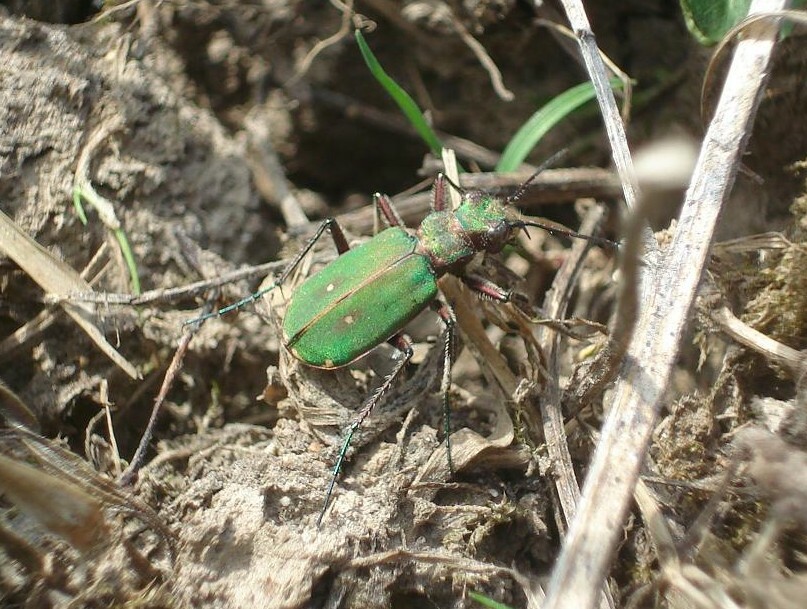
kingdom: Animalia
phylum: Arthropoda
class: Insecta
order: Coleoptera
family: Carabidae
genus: Cicindela
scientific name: Cicindela campestris
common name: Common tiger beetle
